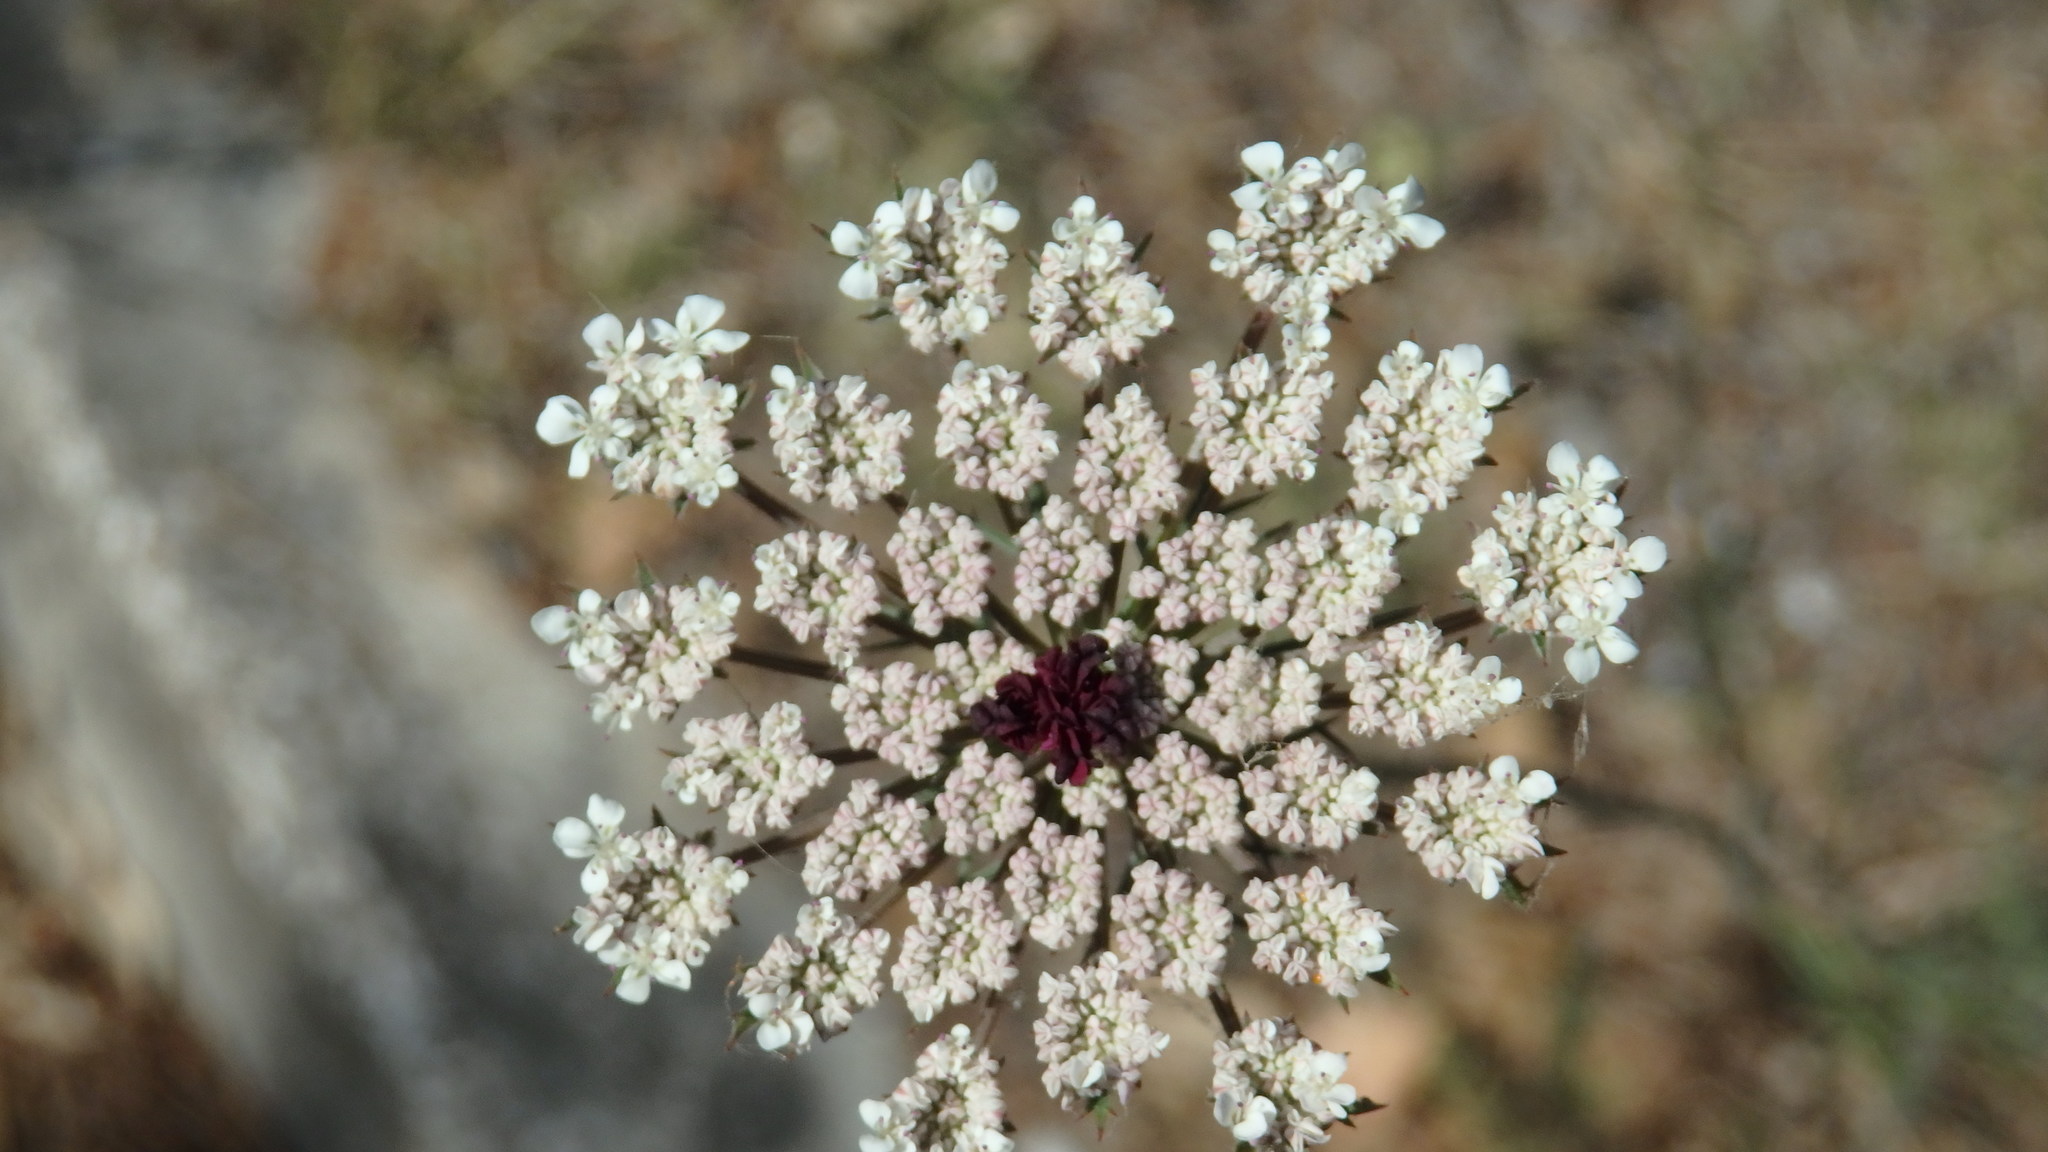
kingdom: Plantae
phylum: Tracheophyta
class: Magnoliopsida
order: Apiales
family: Apiaceae
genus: Daucus
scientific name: Daucus carota
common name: Wild carrot
